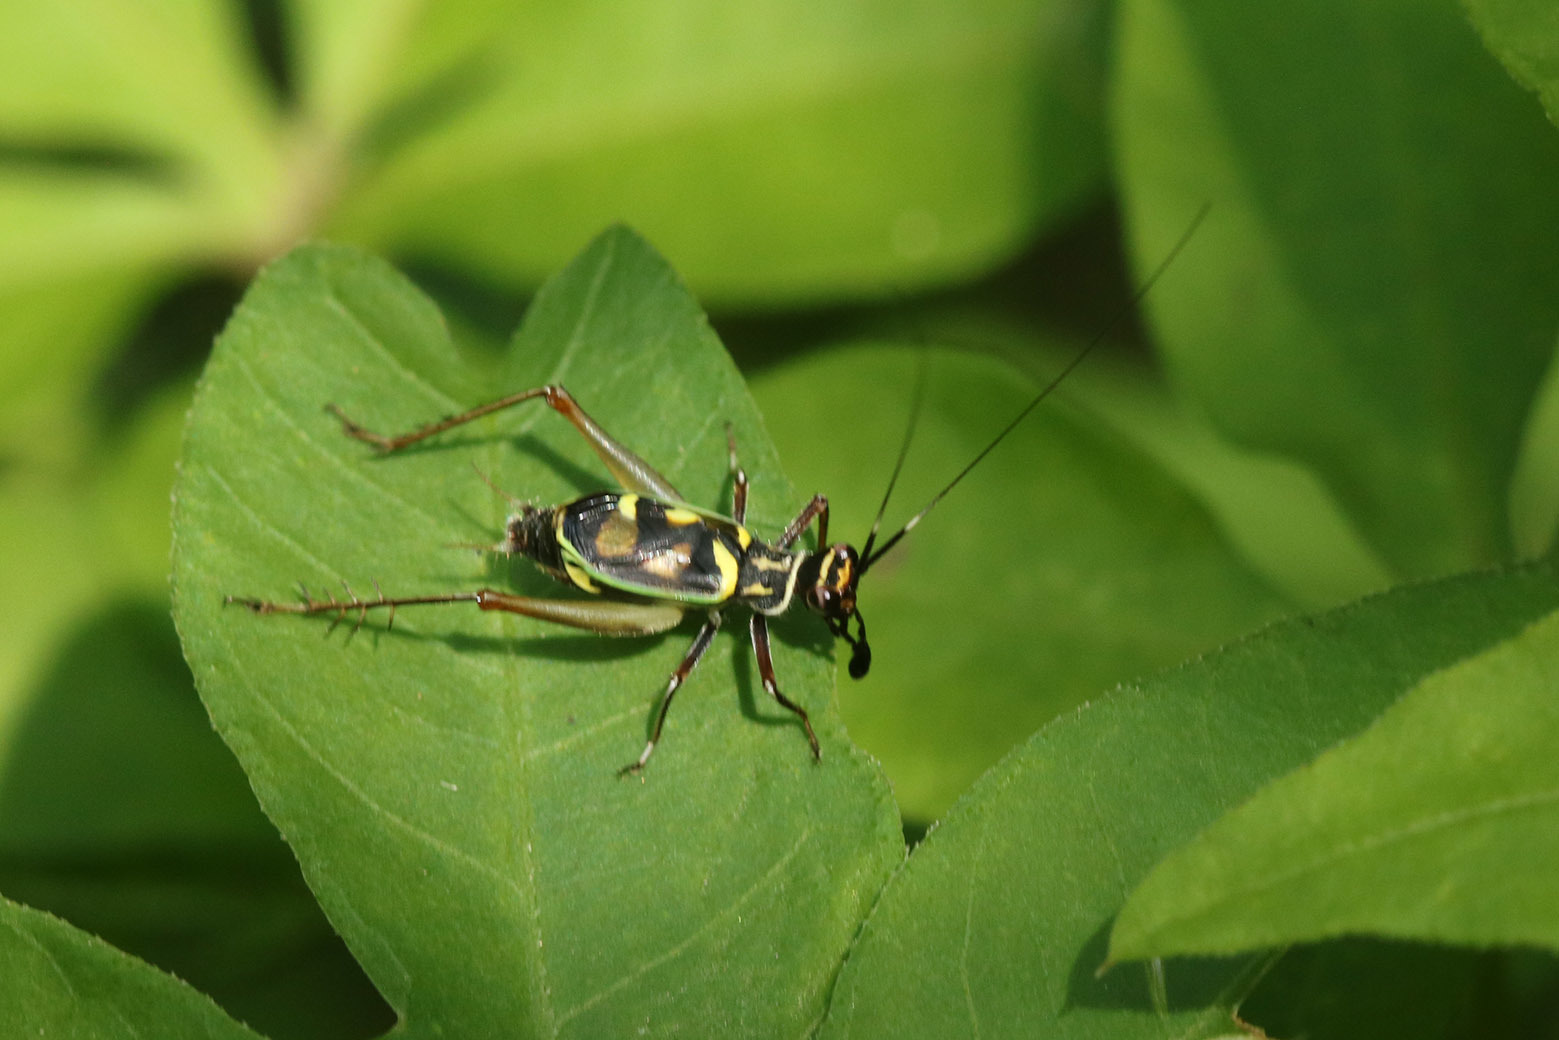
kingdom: Animalia
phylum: Arthropoda
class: Insecta
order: Orthoptera
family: Trigonidiidae
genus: Phylloscyrtus
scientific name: Phylloscyrtus amoenus
